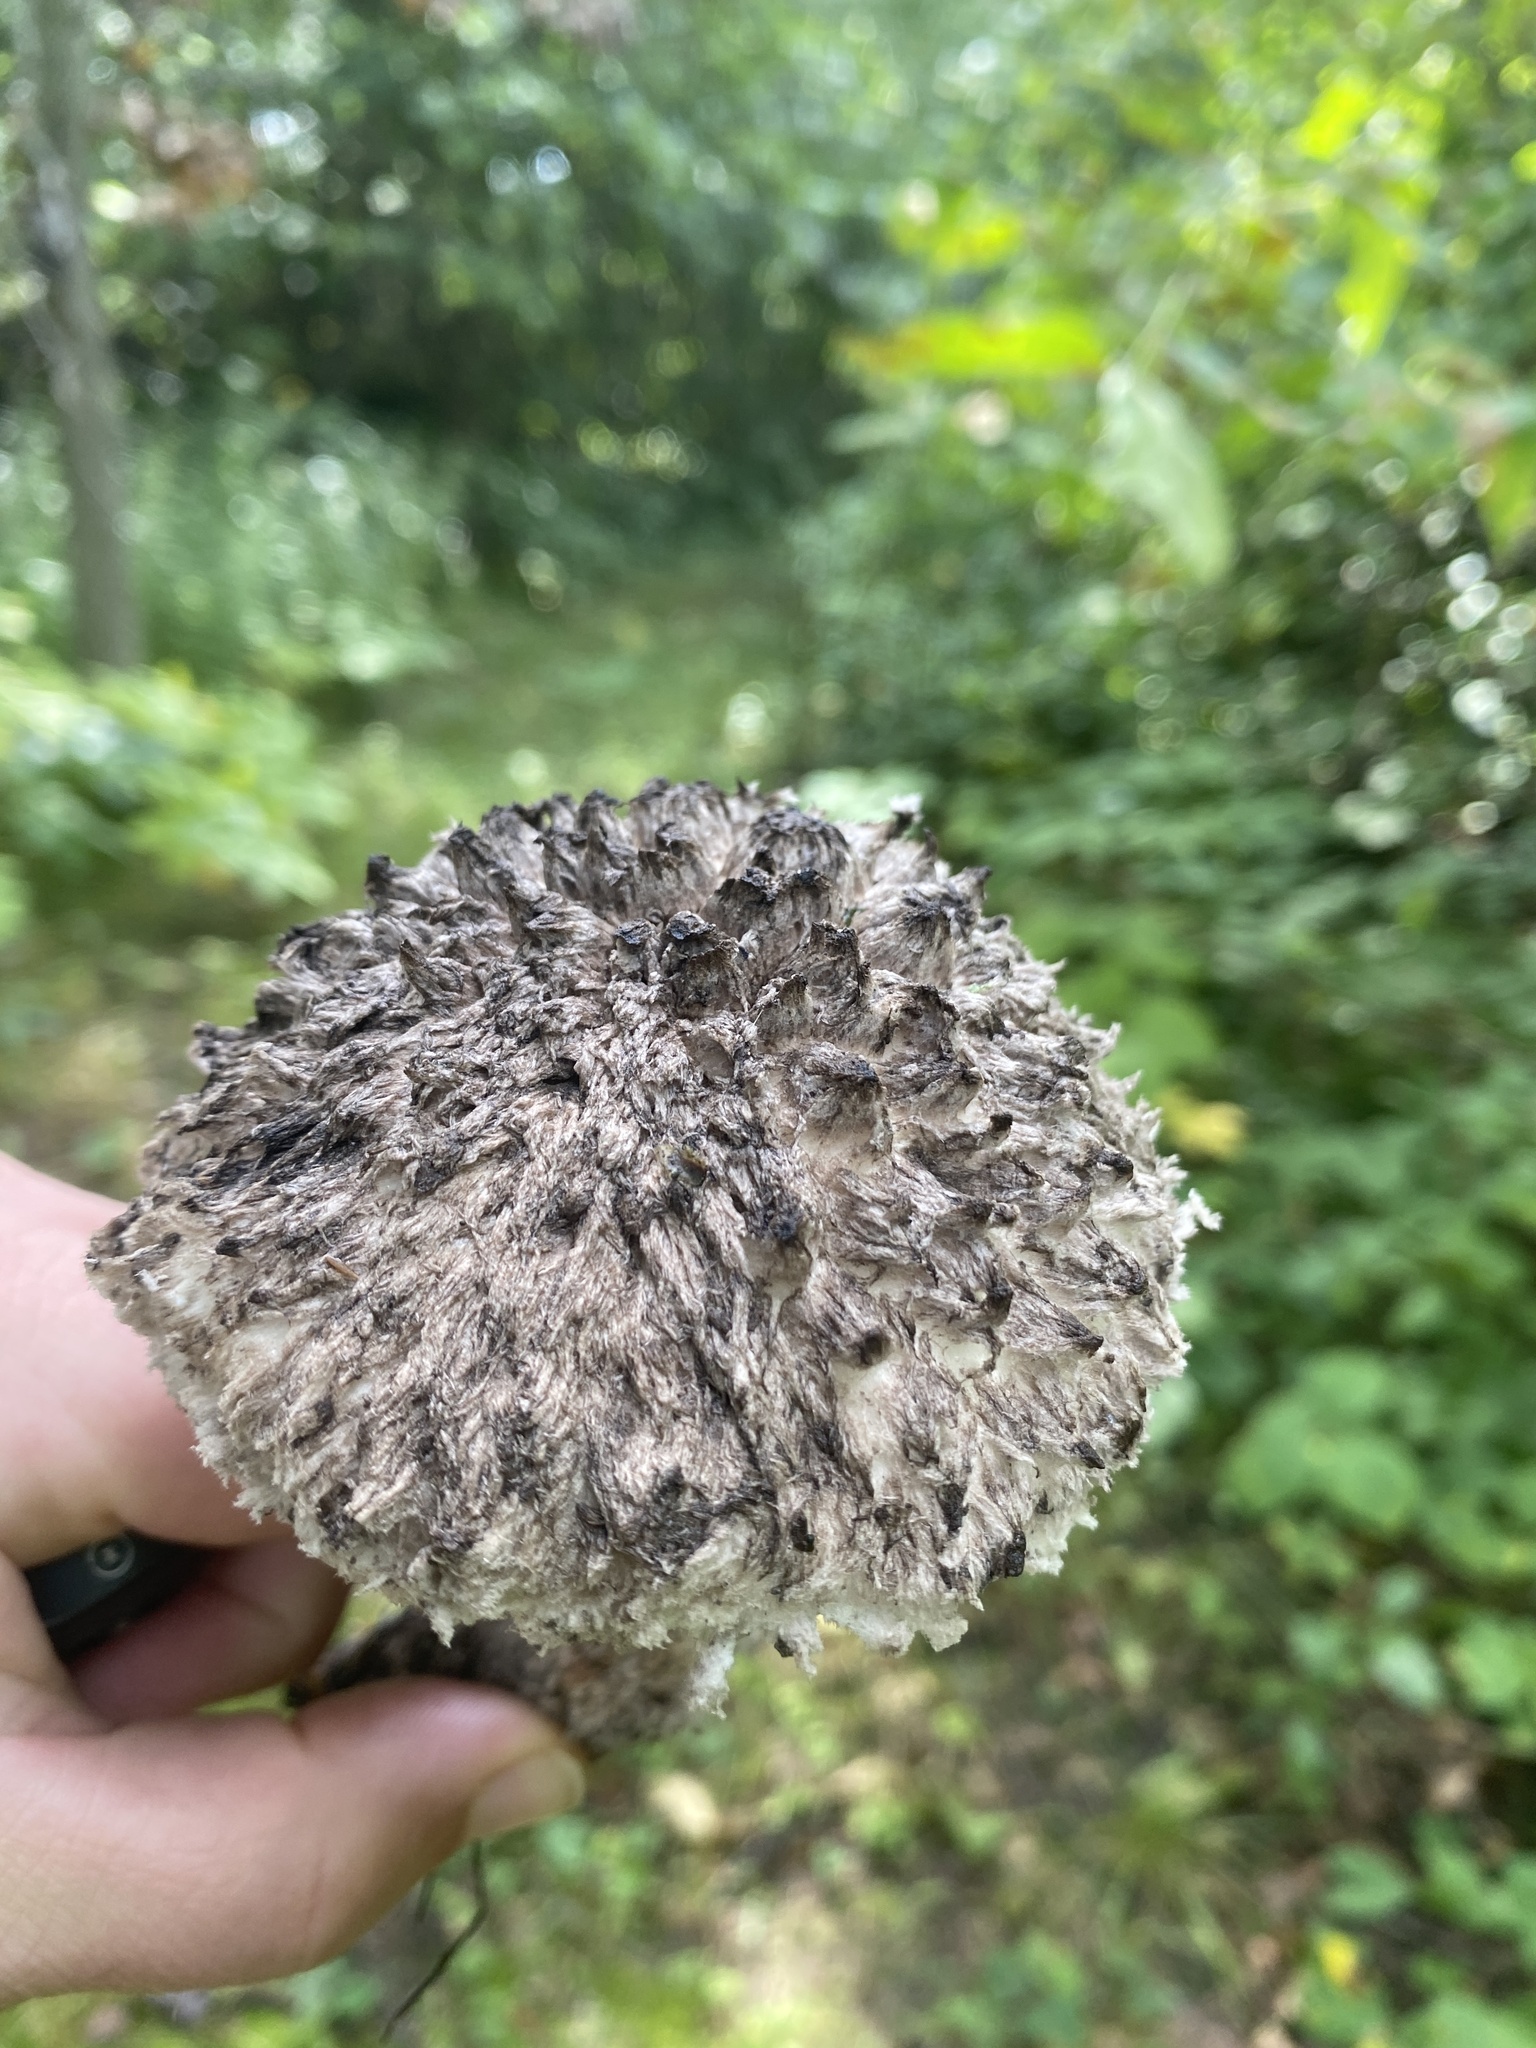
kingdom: Fungi
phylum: Basidiomycota
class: Agaricomycetes
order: Boletales
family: Boletaceae
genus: Strobilomyces
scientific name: Strobilomyces strobilaceus
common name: Old man of the woods
